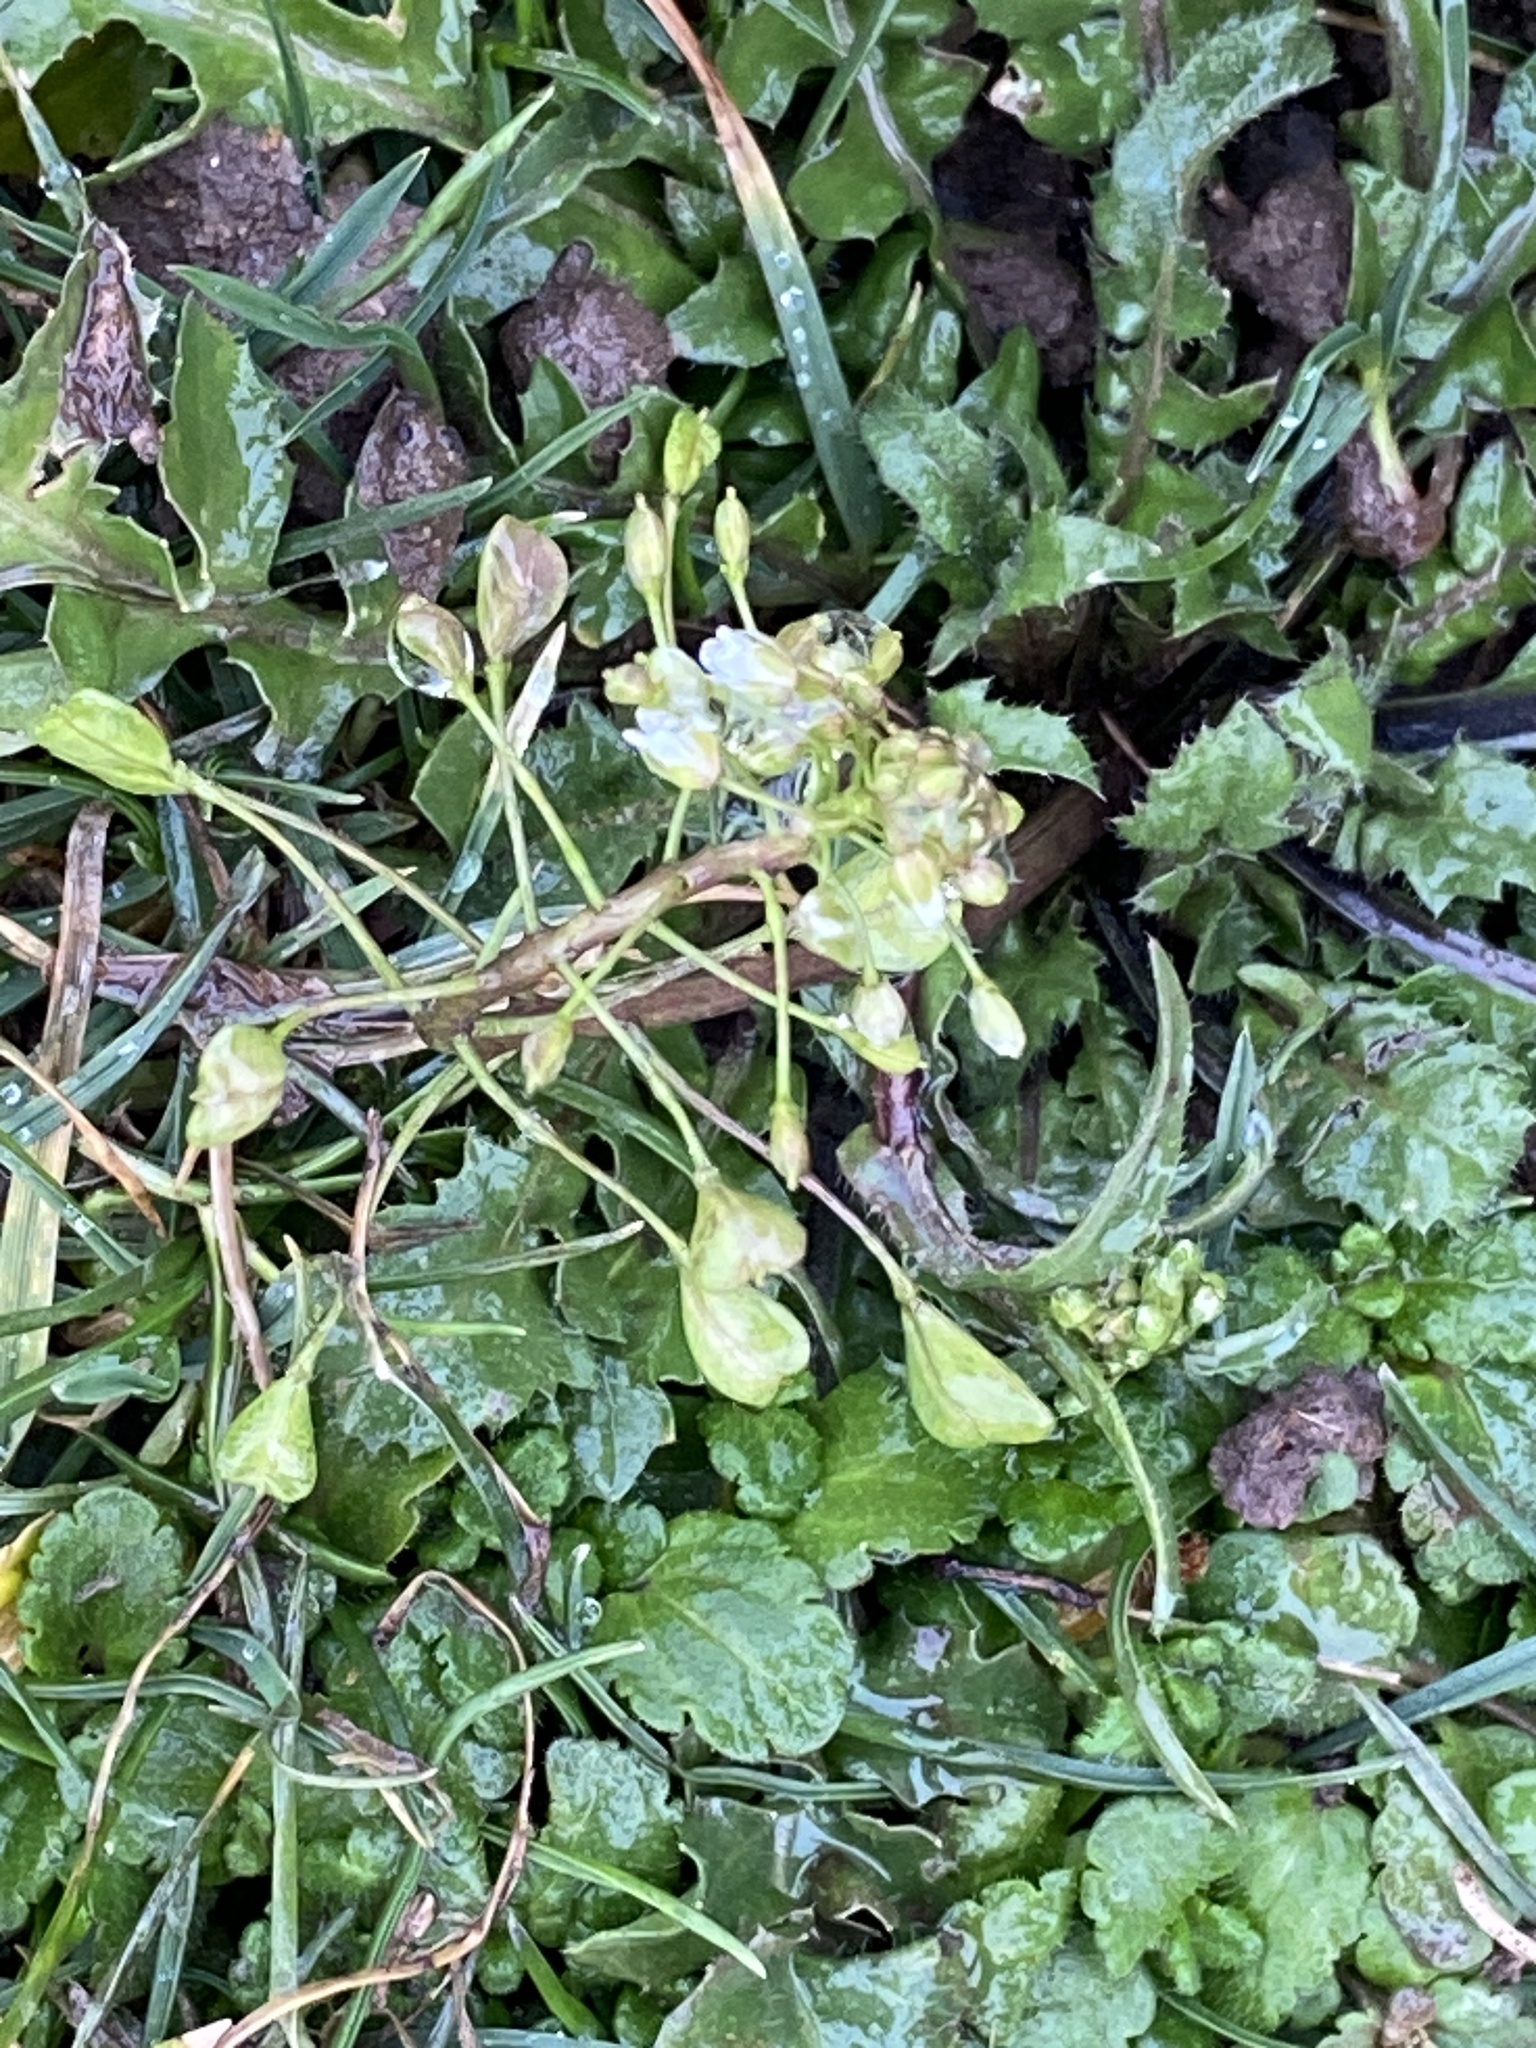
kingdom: Plantae
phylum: Tracheophyta
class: Magnoliopsida
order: Brassicales
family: Brassicaceae
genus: Capsella
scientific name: Capsella bursa-pastoris
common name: Shepherd's purse
